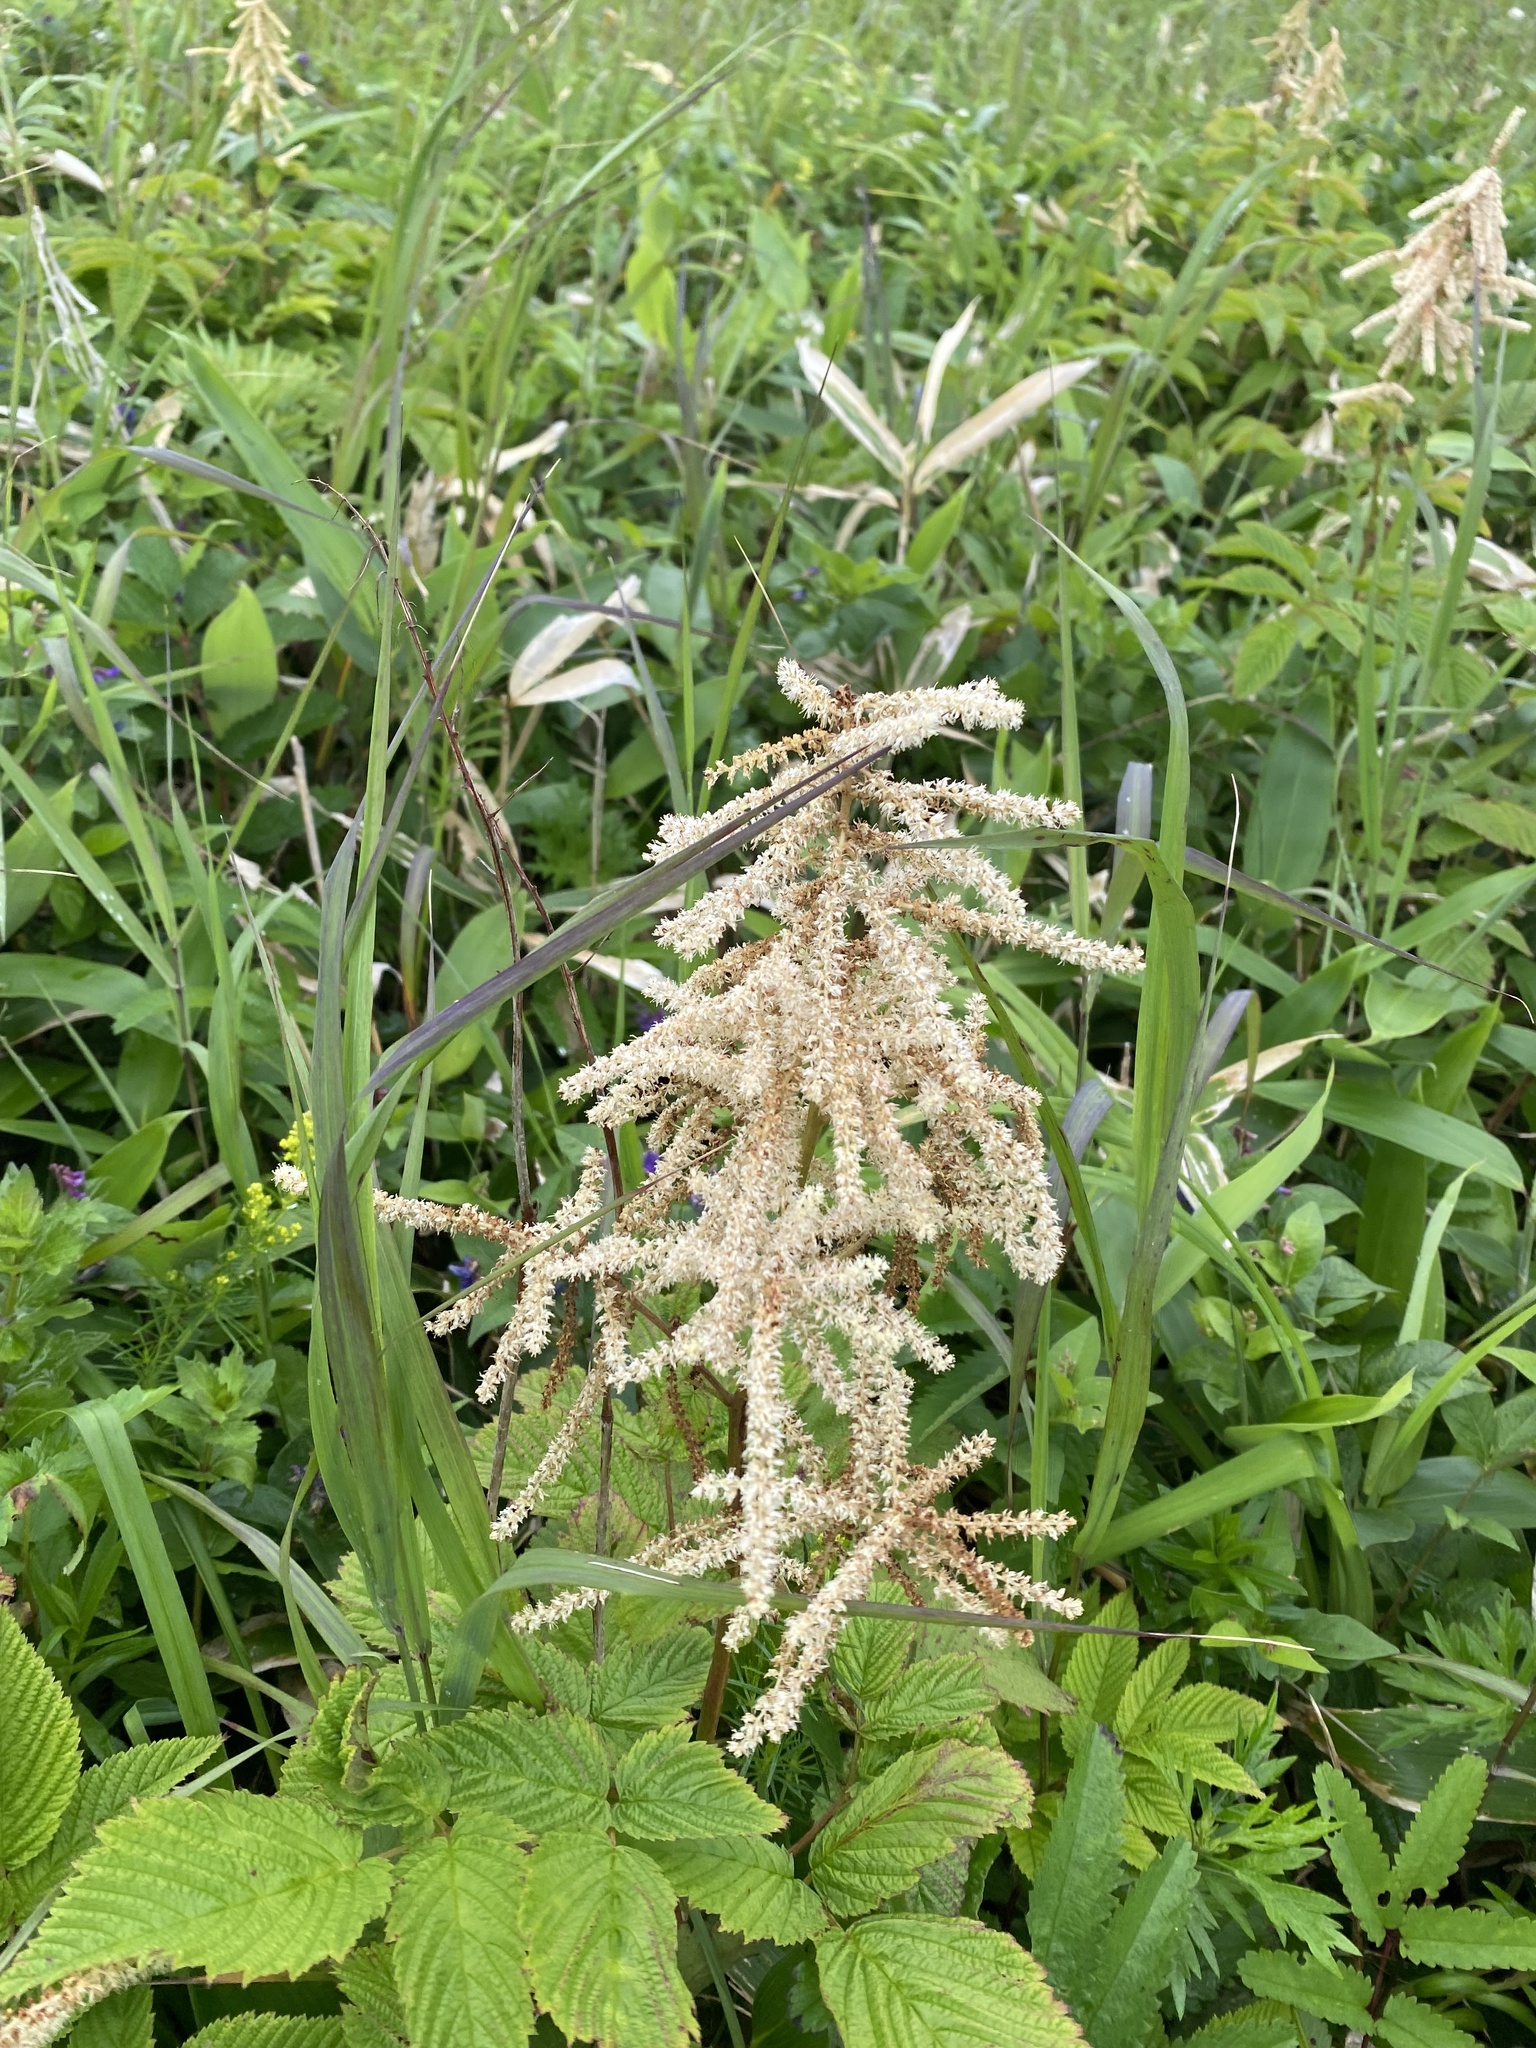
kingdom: Plantae
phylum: Tracheophyta
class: Magnoliopsida
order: Rosales
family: Rosaceae
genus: Aruncus
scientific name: Aruncus dioicus
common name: Buck's-beard
